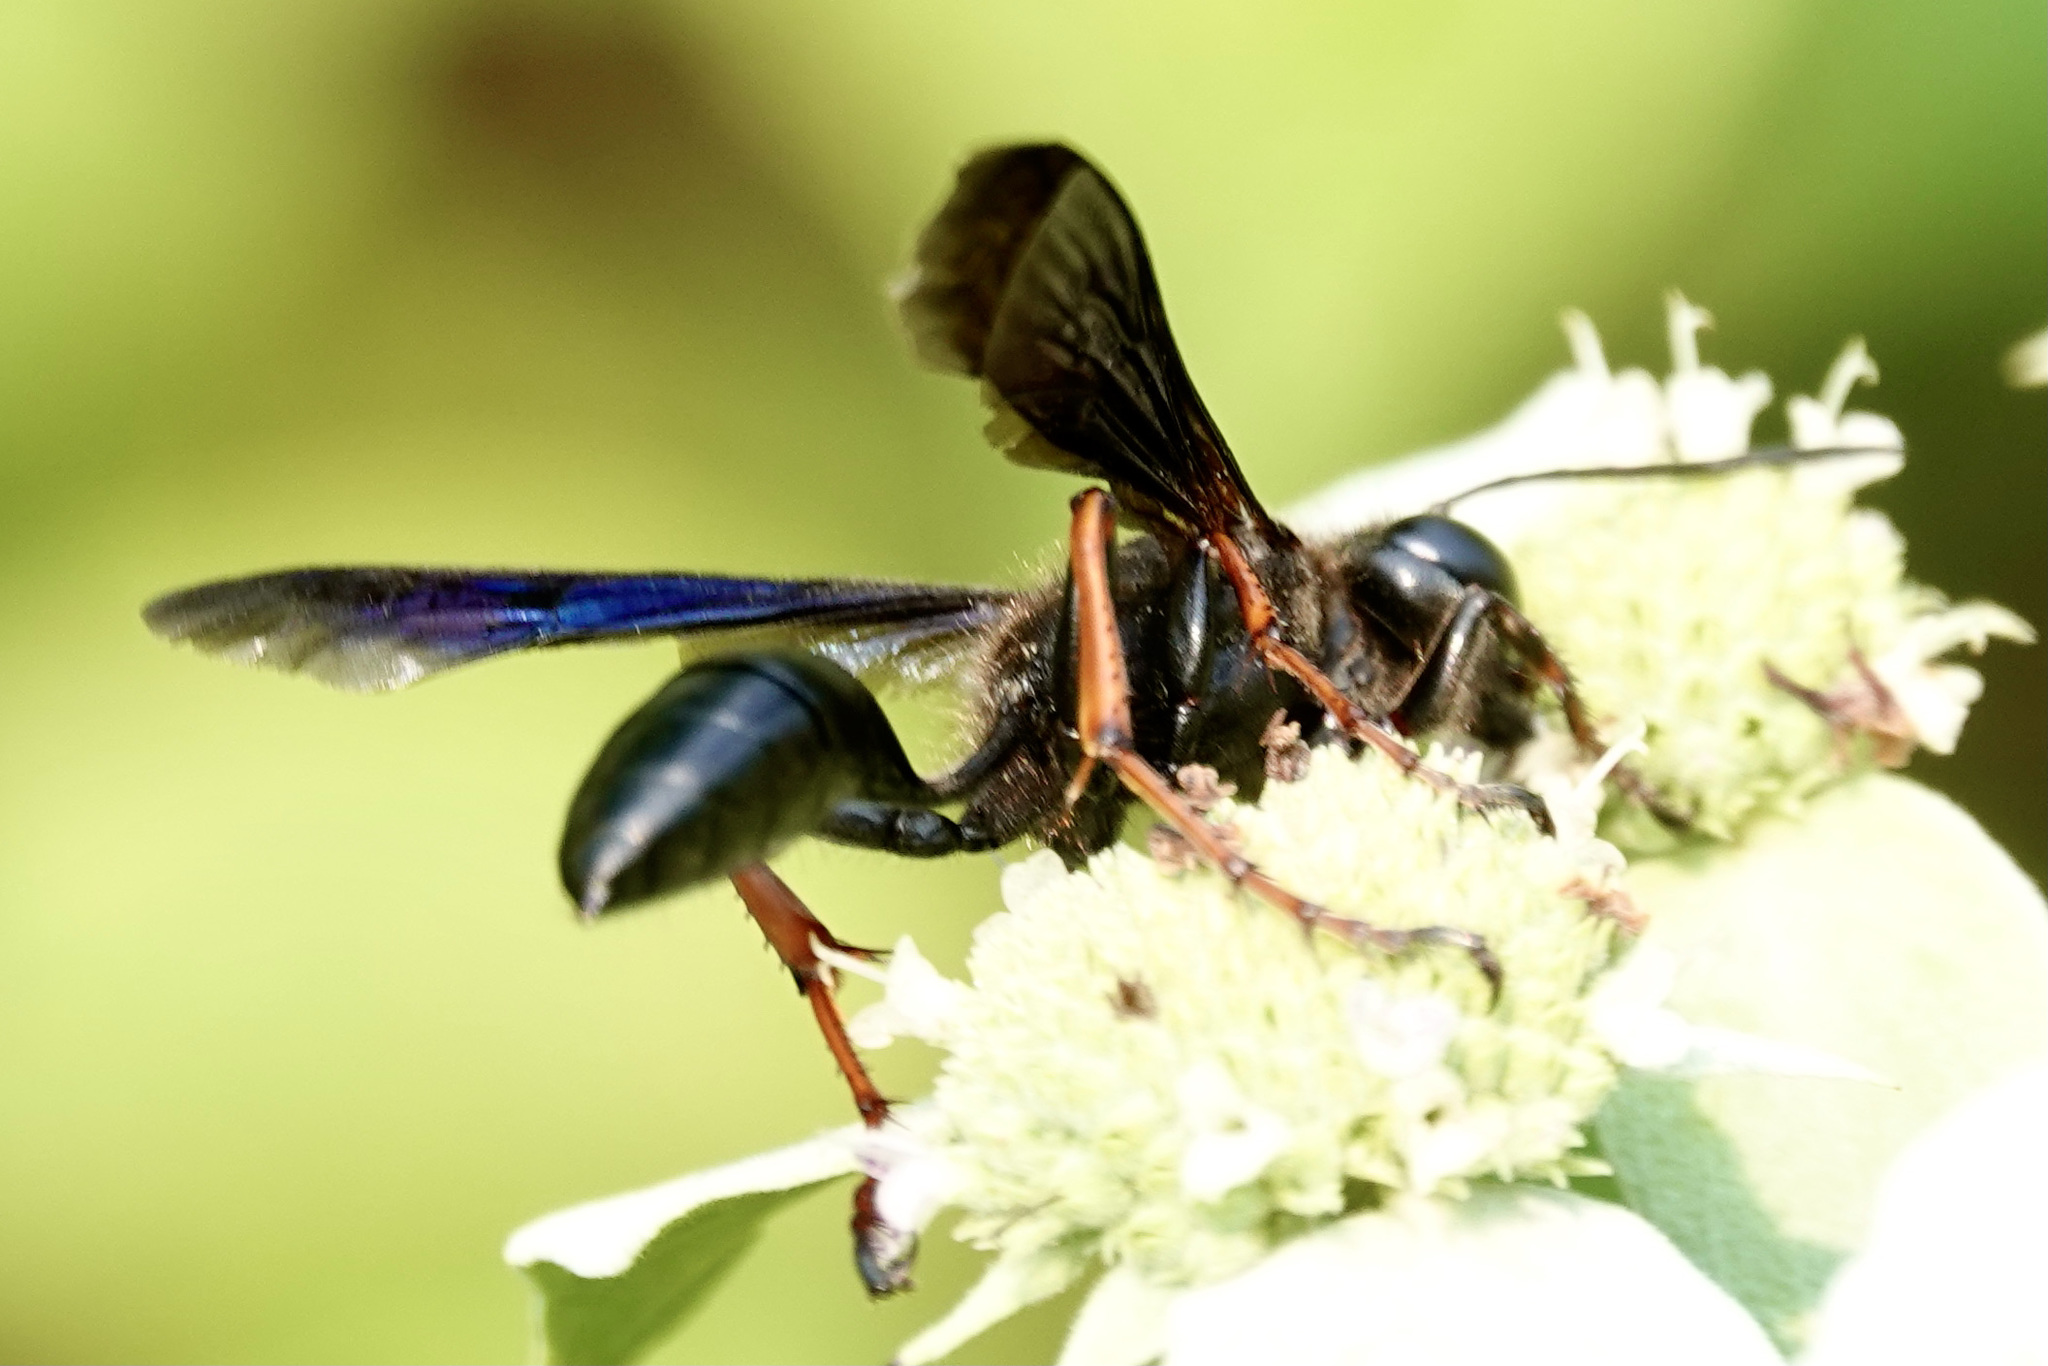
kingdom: Animalia
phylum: Arthropoda
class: Insecta
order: Hymenoptera
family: Sphecidae
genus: Isodontia
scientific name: Isodontia auripes
